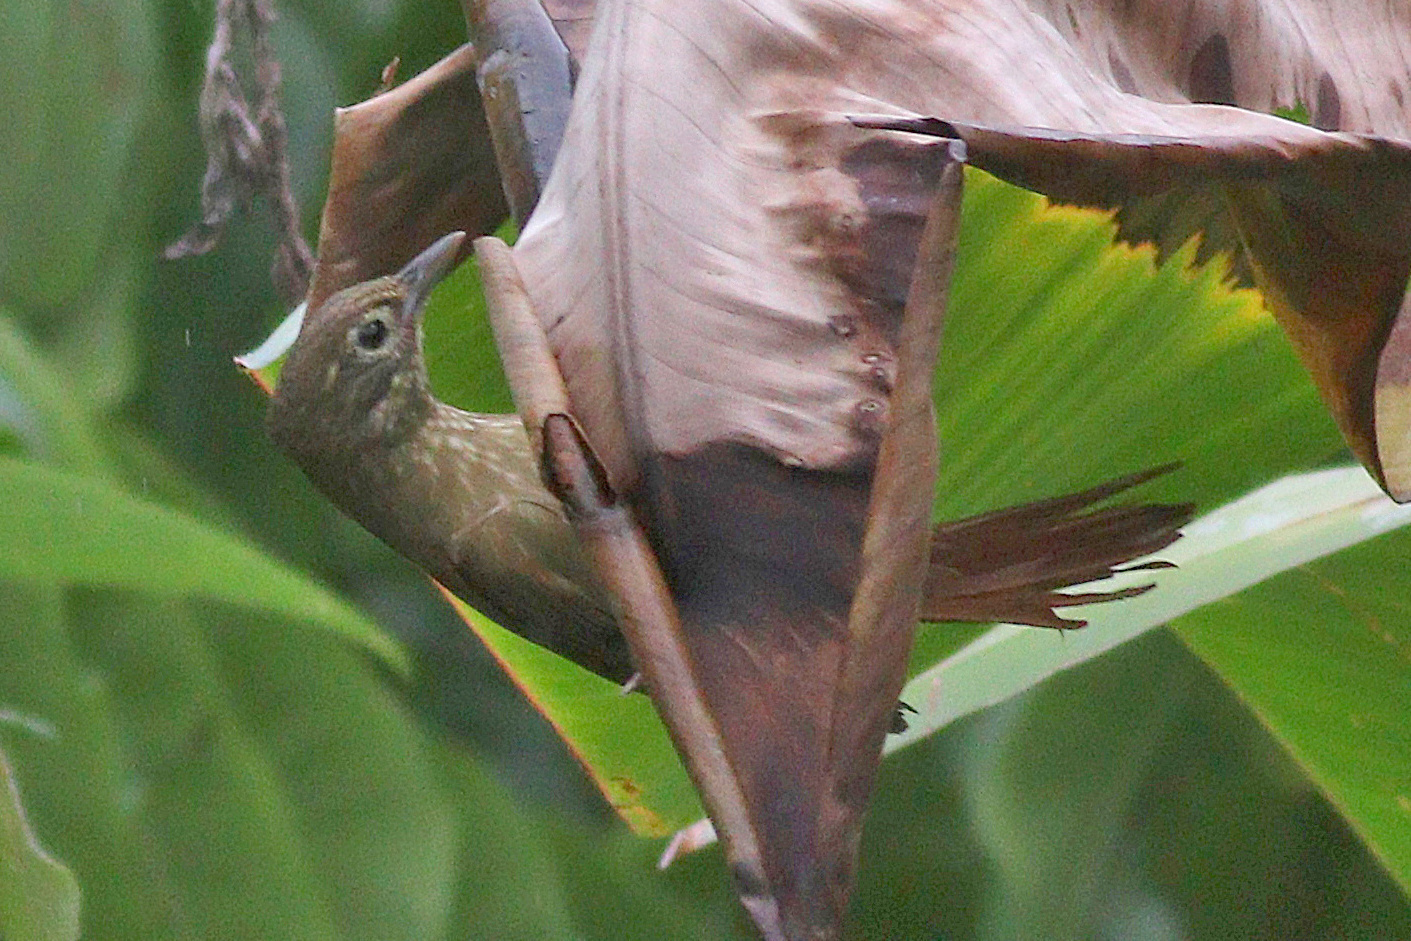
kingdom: Animalia
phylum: Chordata
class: Aves
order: Passeriformes
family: Furnariidae
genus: Anabacerthia
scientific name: Anabacerthia striaticollis
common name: Montane foliage-gleaner
